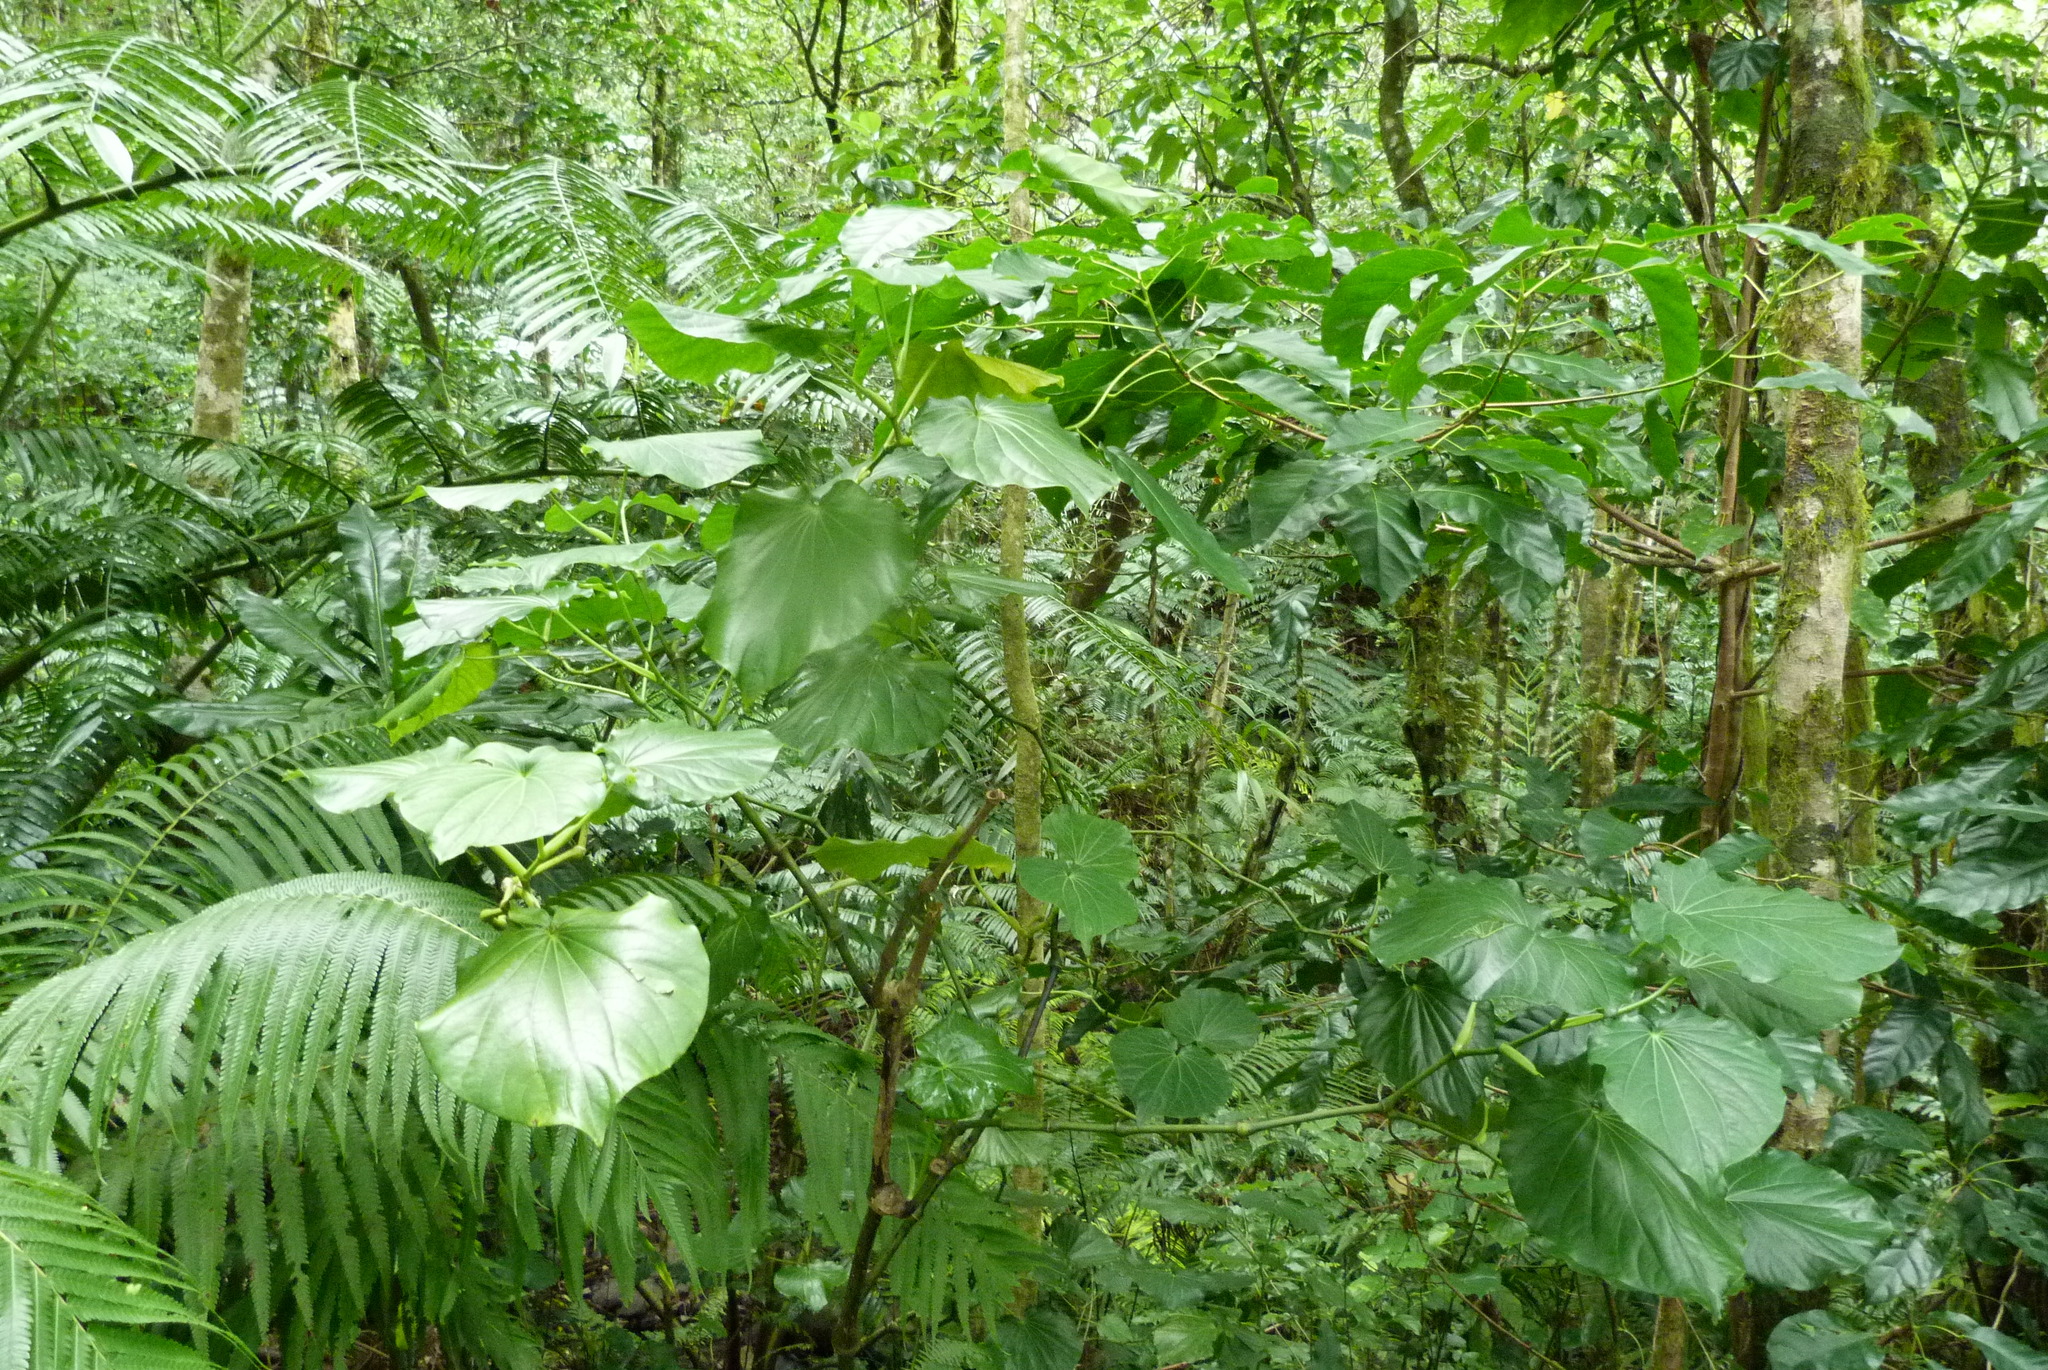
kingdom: Plantae
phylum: Tracheophyta
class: Magnoliopsida
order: Piperales
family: Piperaceae
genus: Piper
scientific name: Piper latifolium
